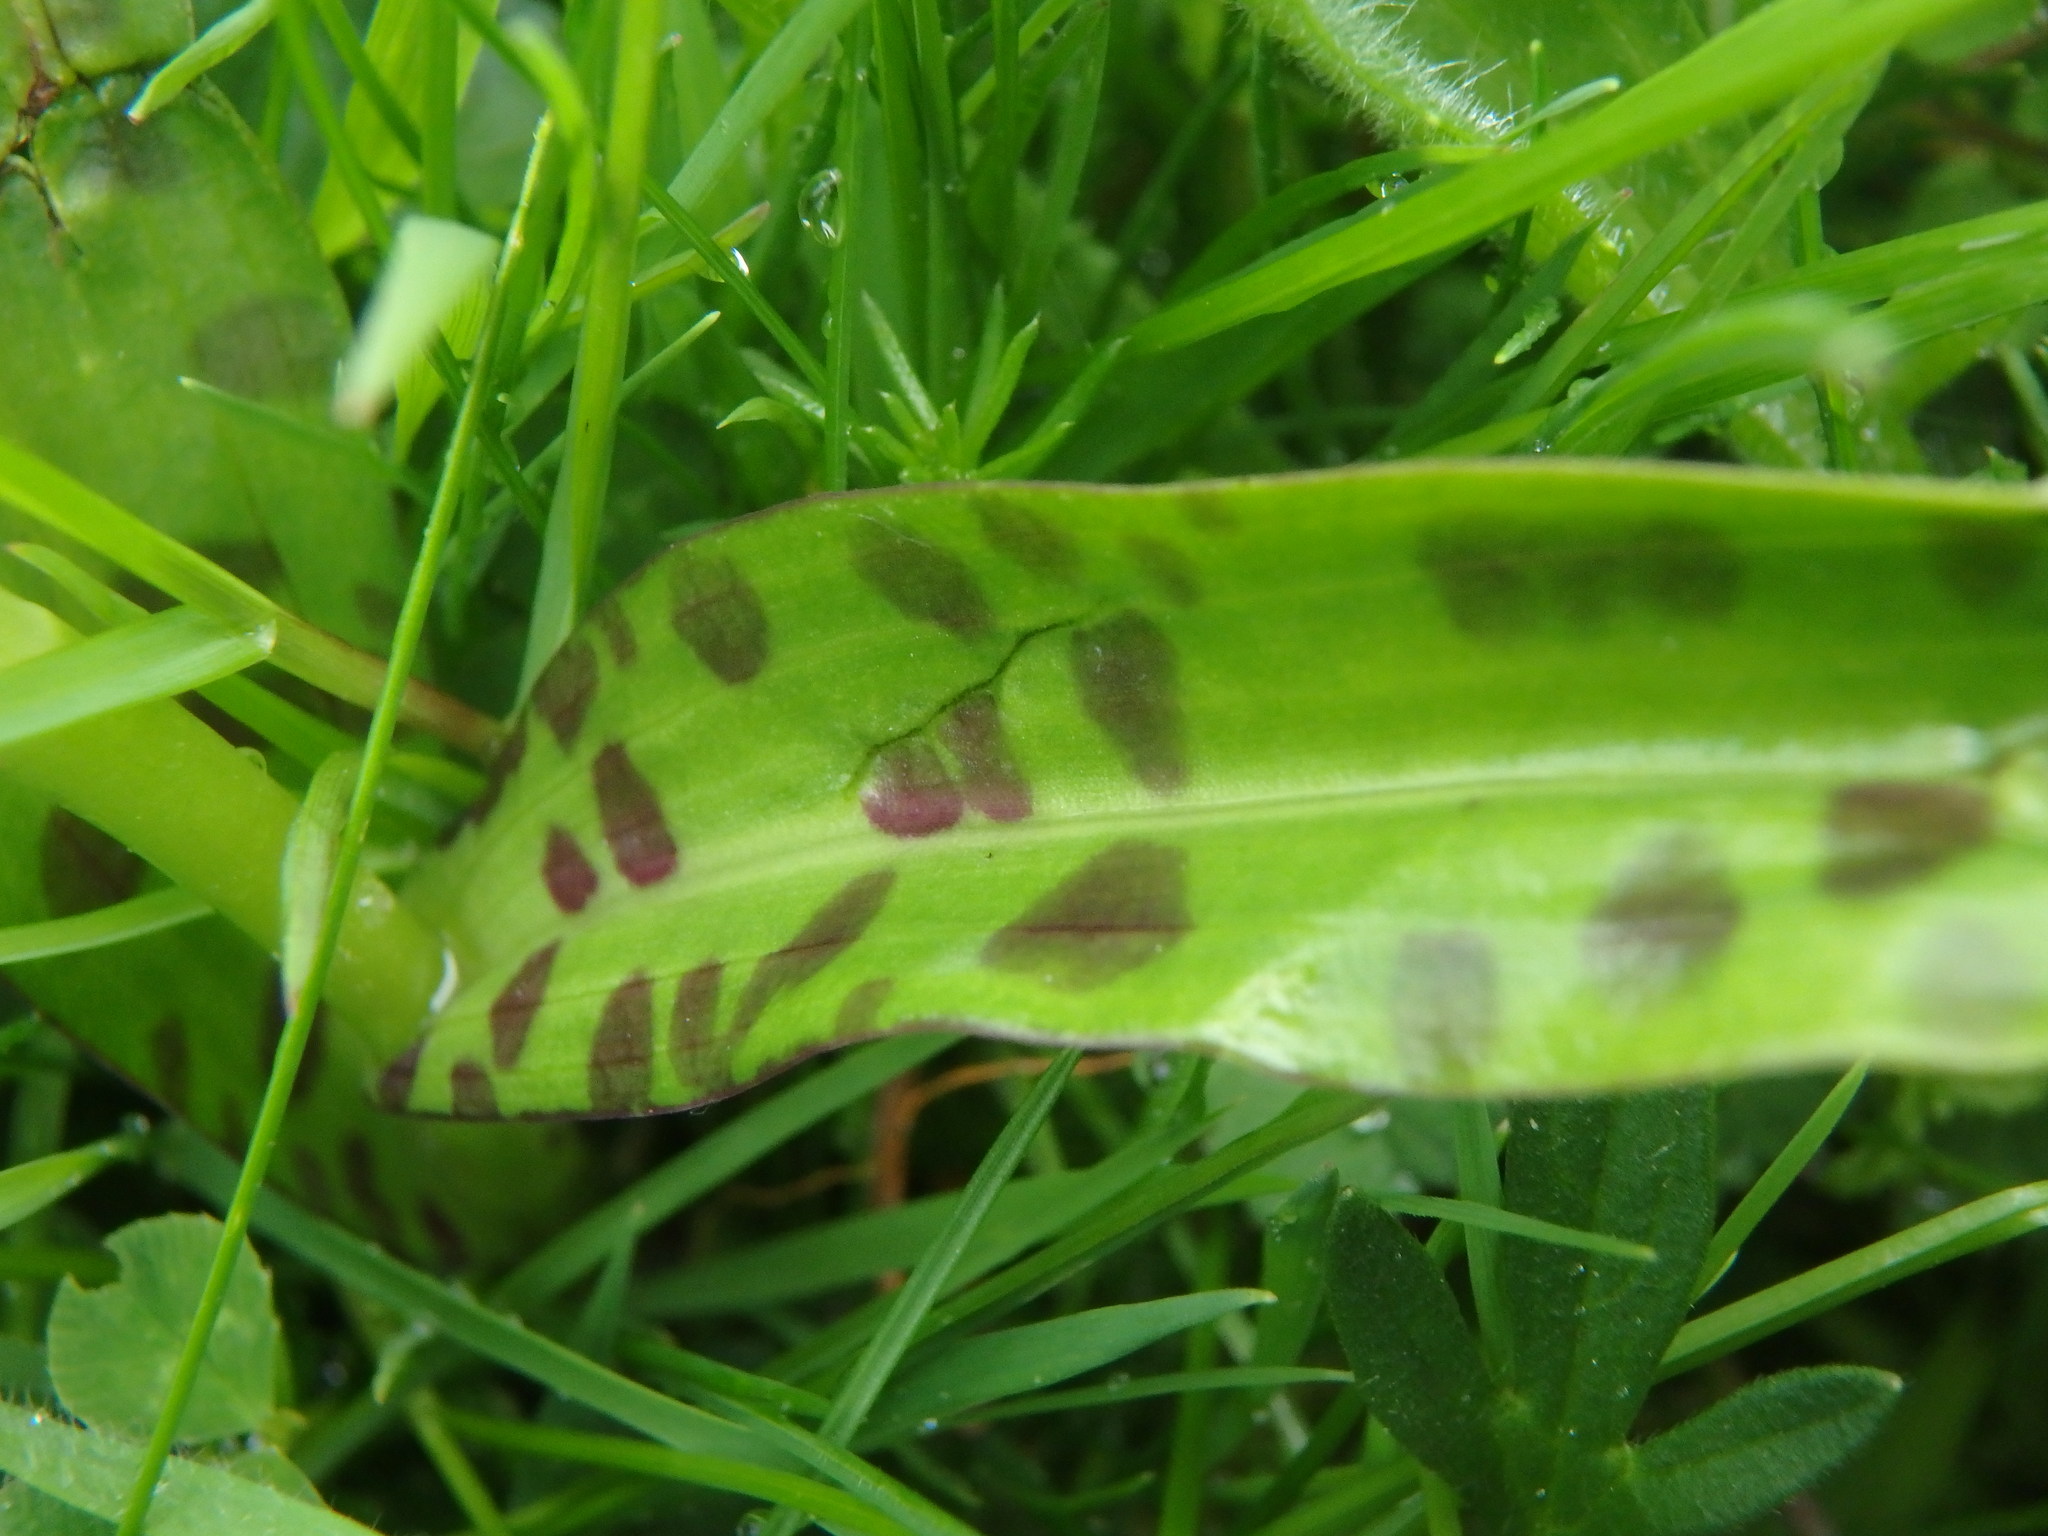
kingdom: Plantae
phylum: Tracheophyta
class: Liliopsida
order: Asparagales
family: Orchidaceae
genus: Dactylorhiza
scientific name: Dactylorhiza maculata
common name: Heath spotted-orchid
